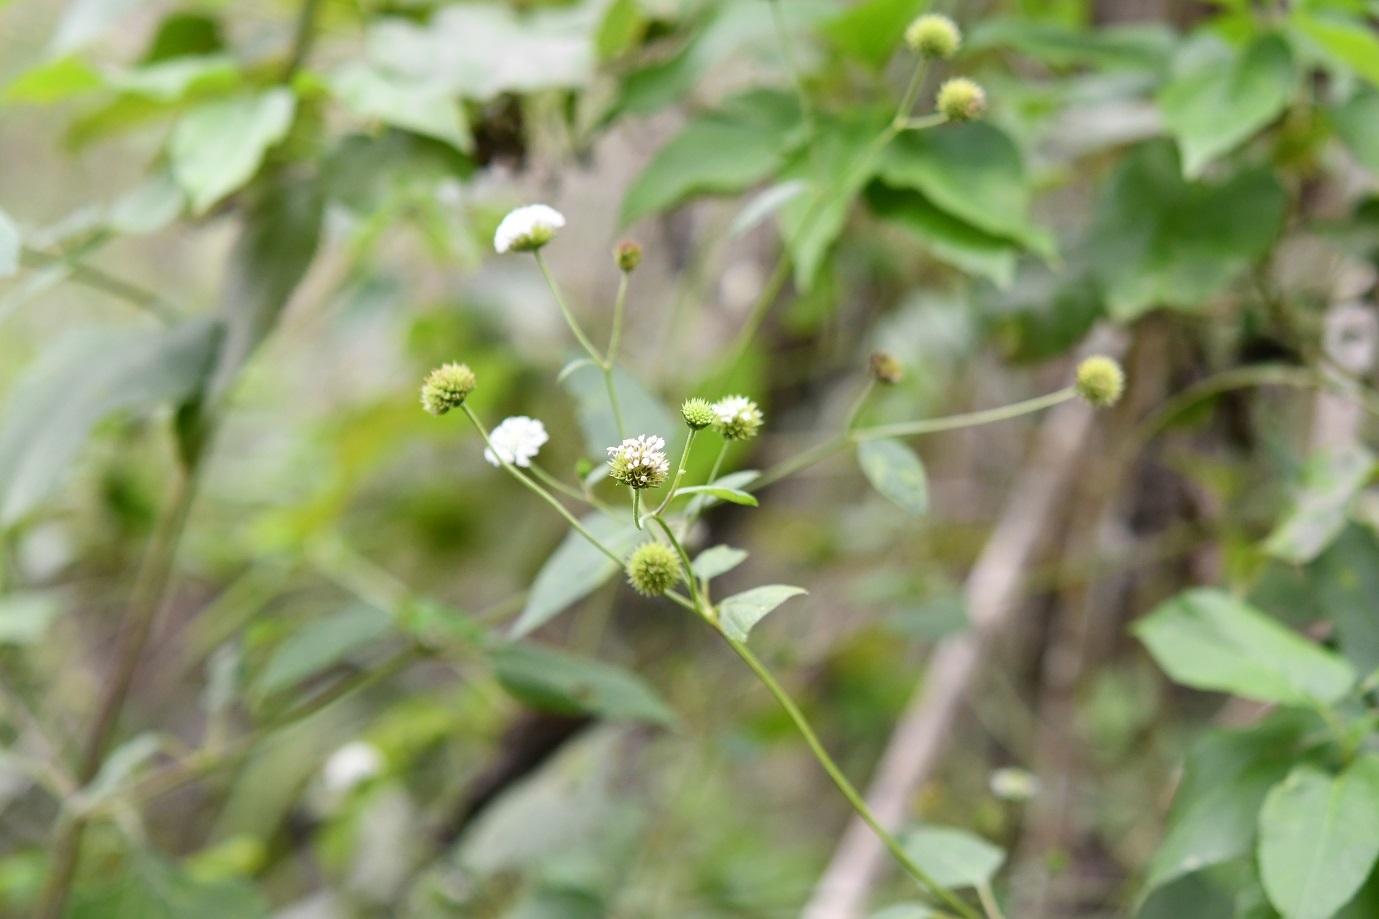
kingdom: Plantae
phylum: Tracheophyta
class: Magnoliopsida
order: Asterales
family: Asteraceae
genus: Melanthera
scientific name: Melanthera nivea
